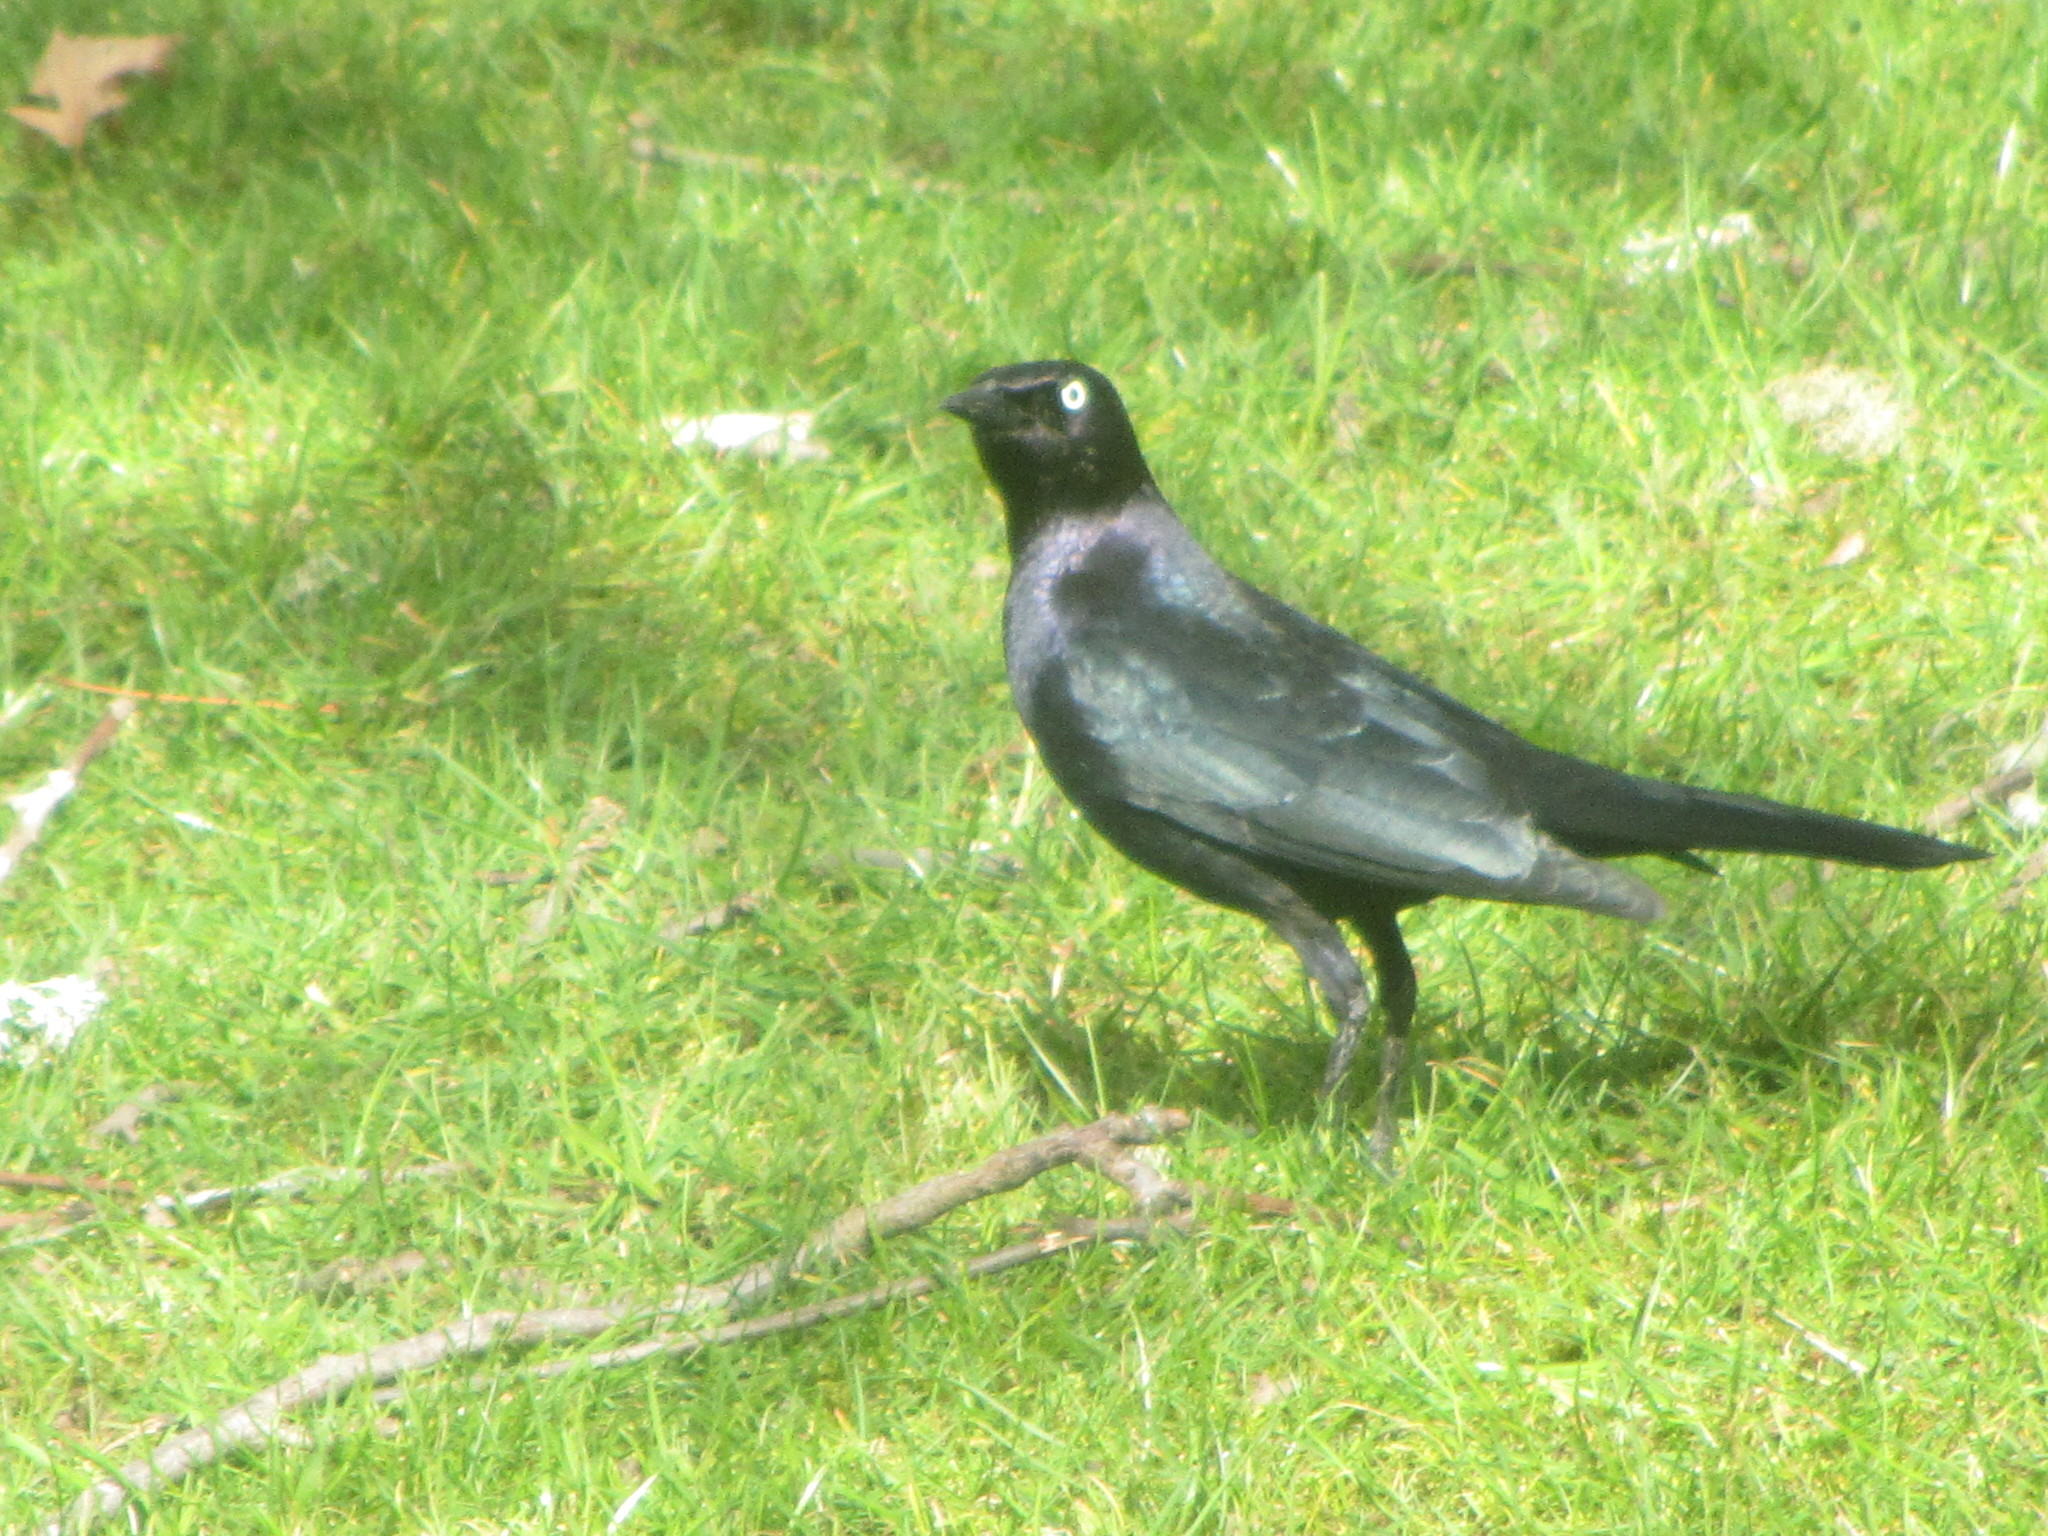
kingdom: Animalia
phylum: Chordata
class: Aves
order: Passeriformes
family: Icteridae
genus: Euphagus
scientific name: Euphagus cyanocephalus
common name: Brewer's blackbird
